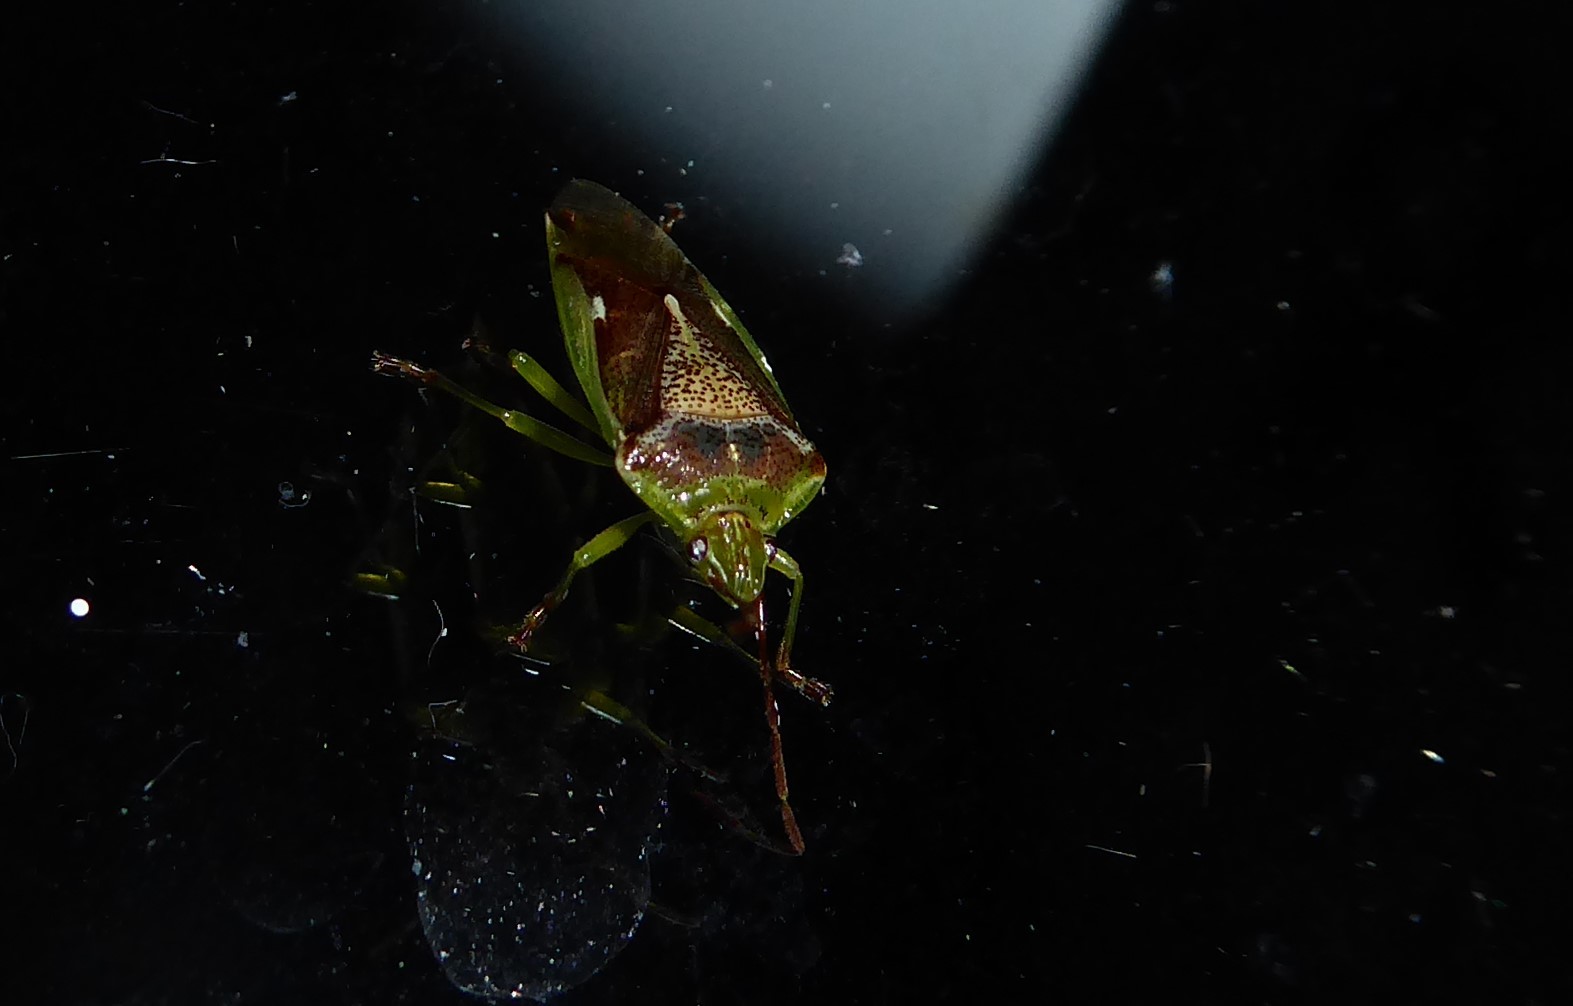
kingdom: Animalia
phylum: Arthropoda
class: Insecta
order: Hemiptera
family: Acanthosomatidae
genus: Oncacontias
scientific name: Oncacontias vittatus
